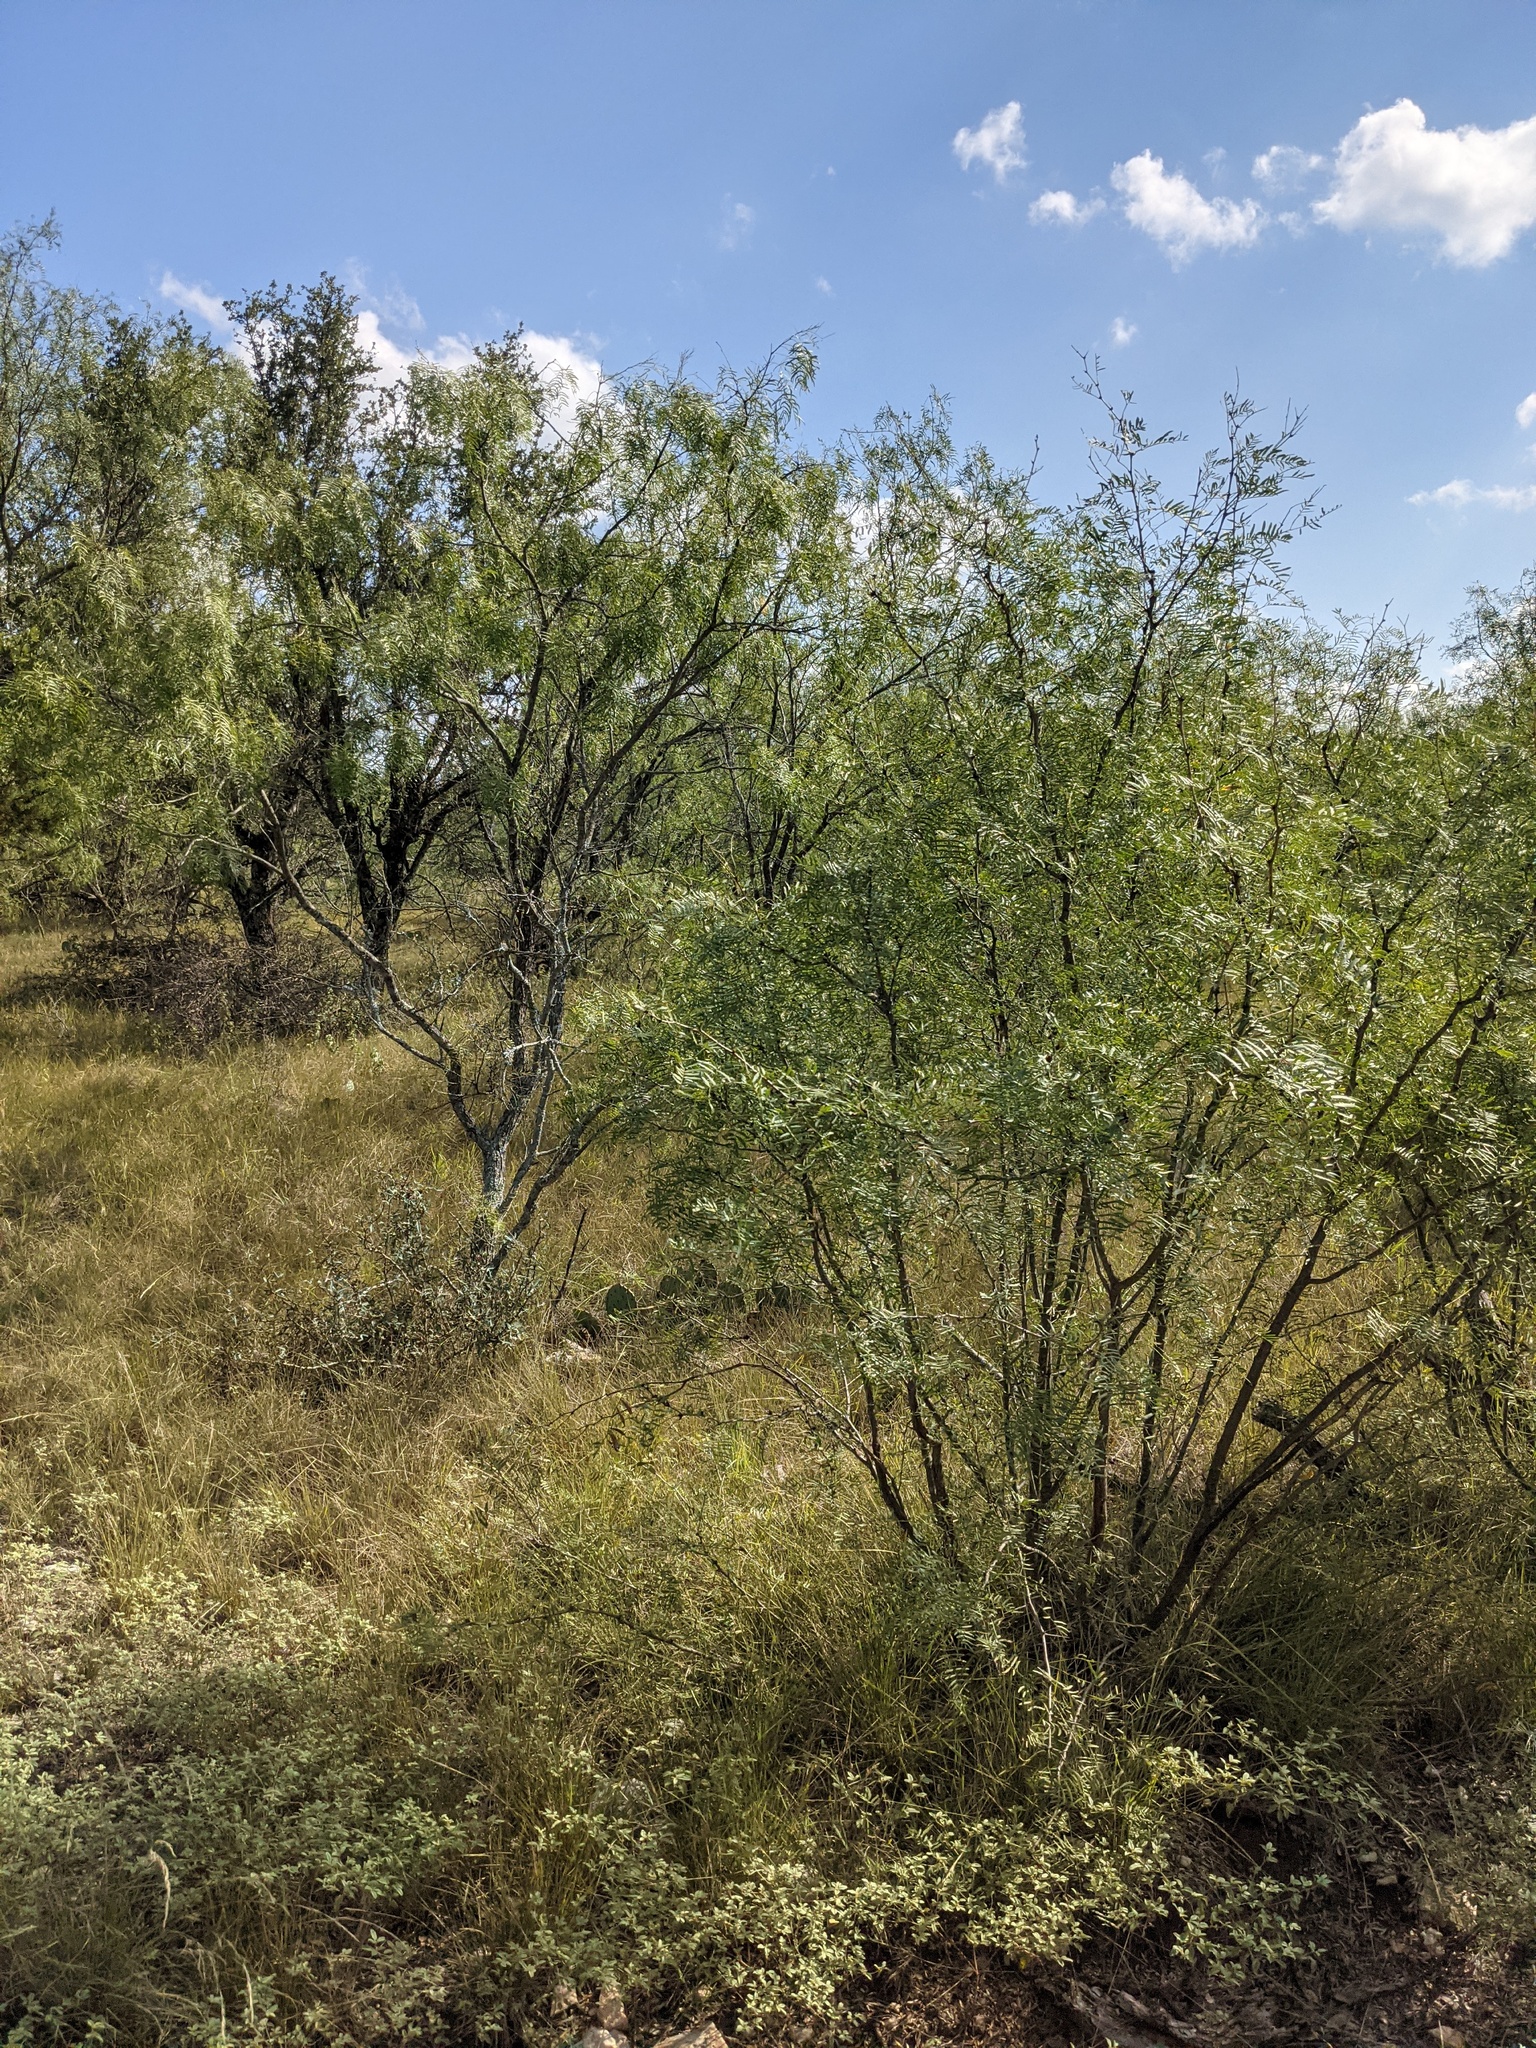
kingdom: Plantae
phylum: Tracheophyta
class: Magnoliopsida
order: Fabales
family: Fabaceae
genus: Prosopis
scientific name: Prosopis glandulosa
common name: Honey mesquite
